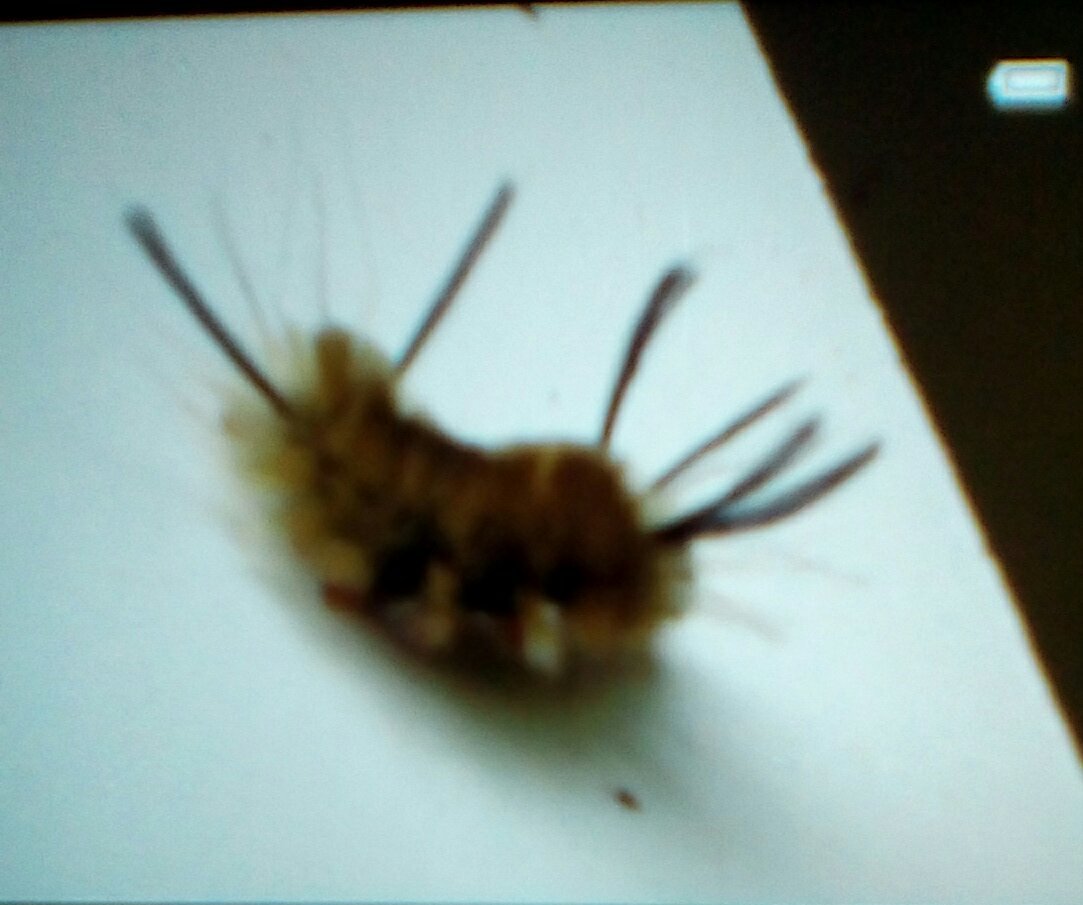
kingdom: Animalia
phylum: Arthropoda
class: Insecta
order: Lepidoptera
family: Erebidae
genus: Halysidota
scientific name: Halysidota tessellaris
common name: Banded tussock moth
